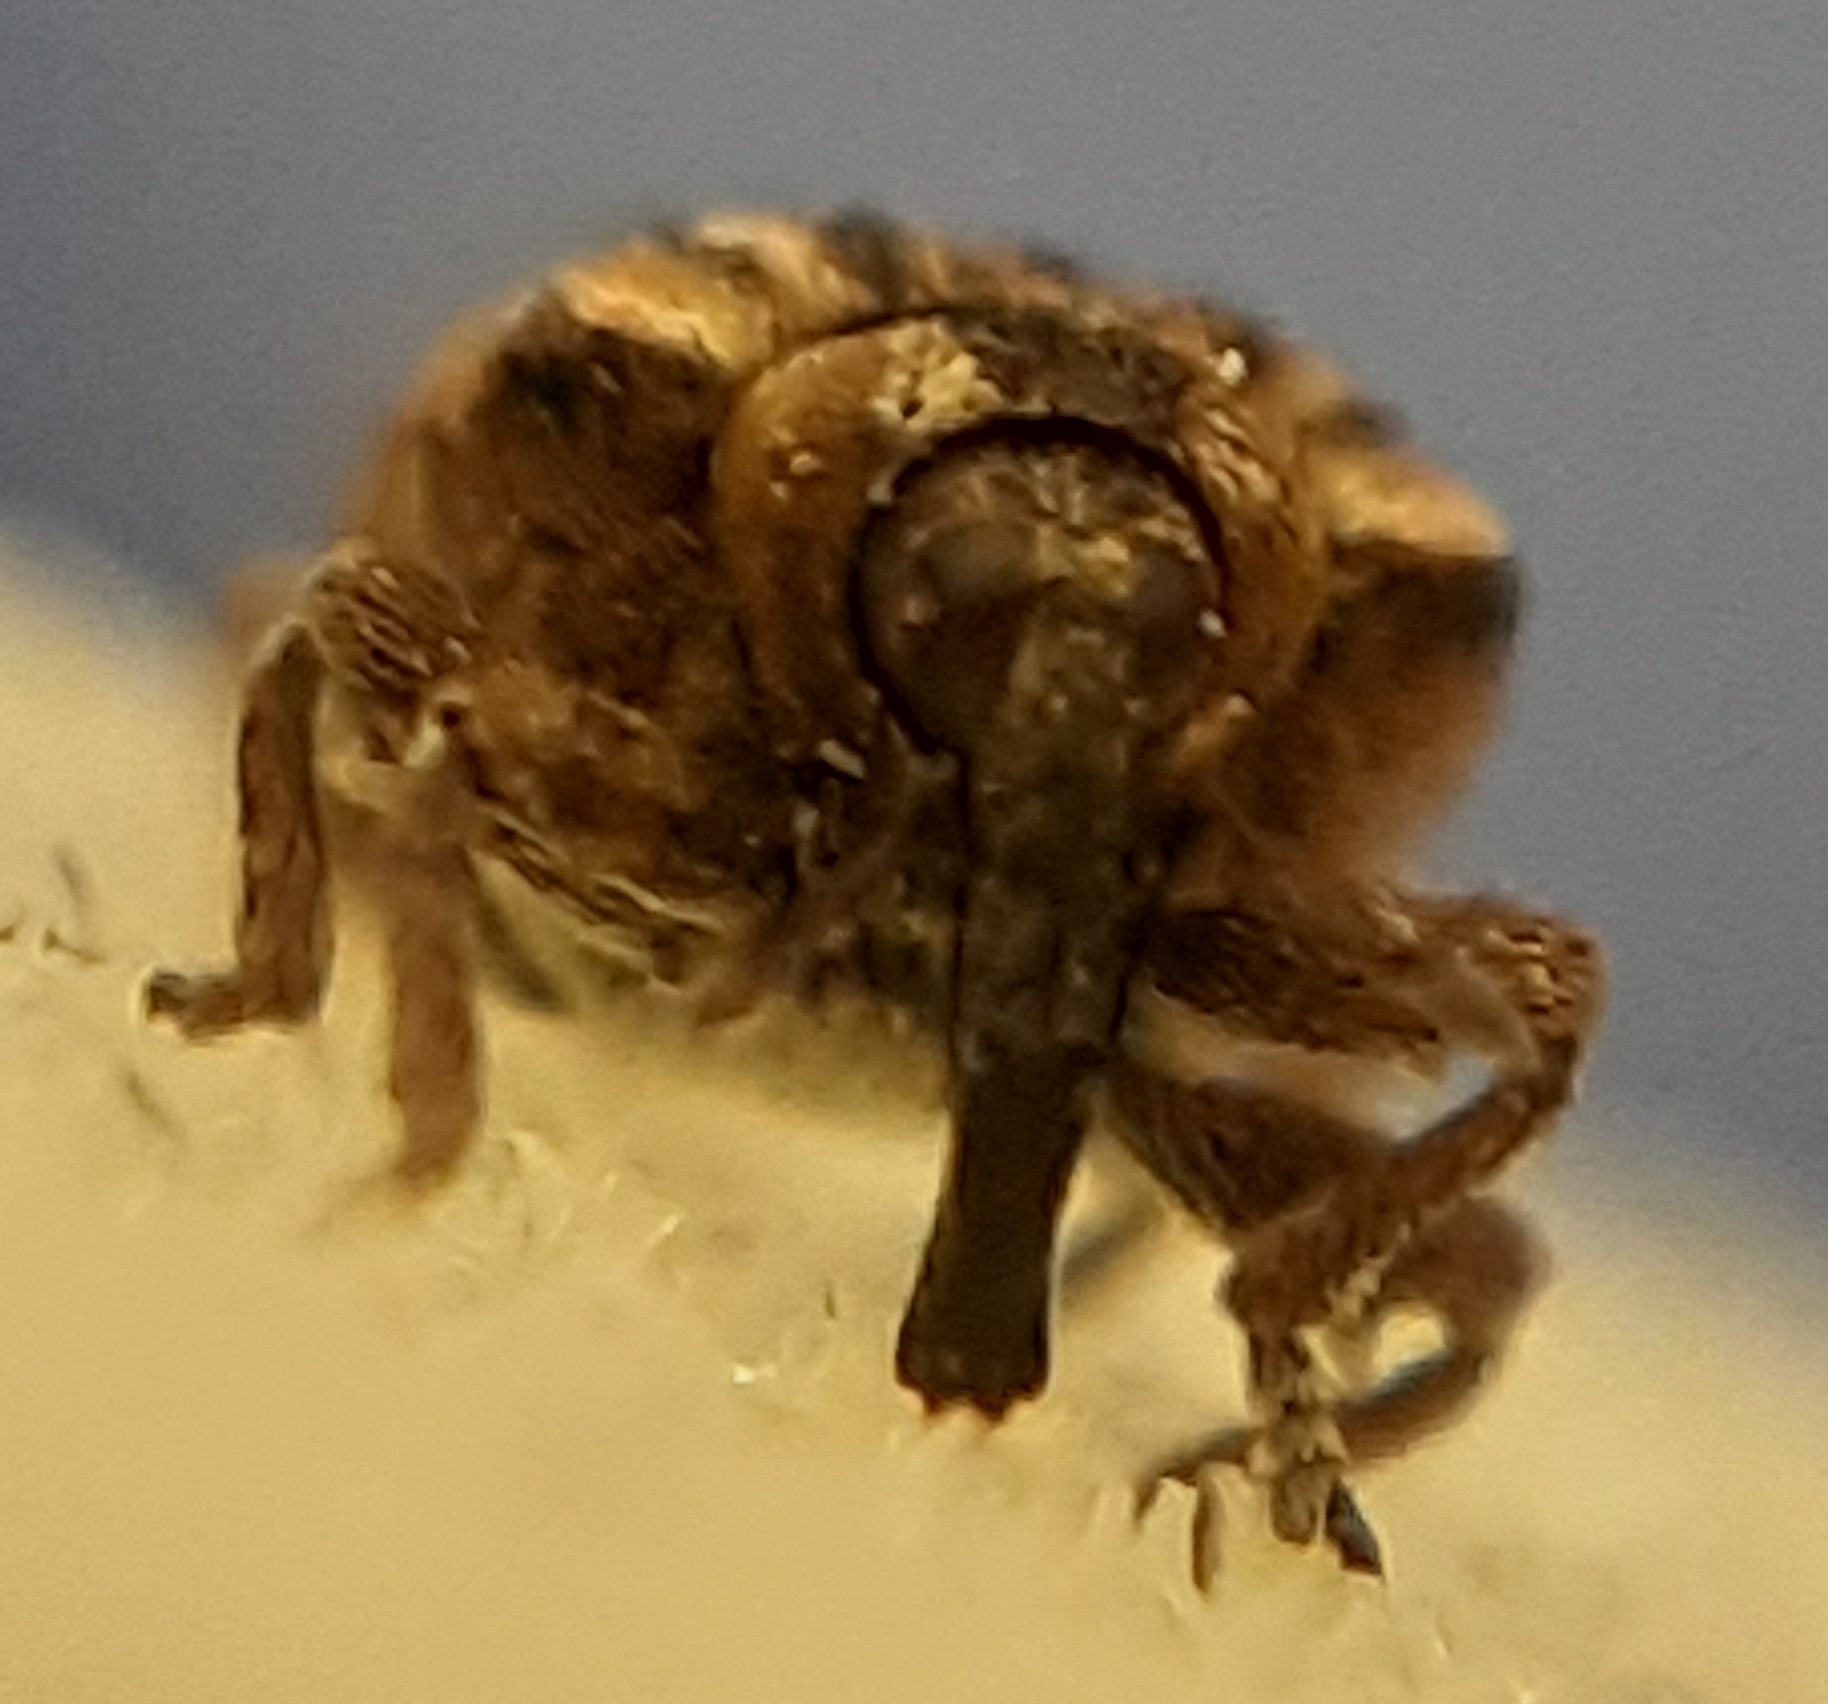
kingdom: Animalia
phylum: Arthropoda
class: Insecta
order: Coleoptera
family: Curculionidae
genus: Stereonychus
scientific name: Stereonychus fraxini
